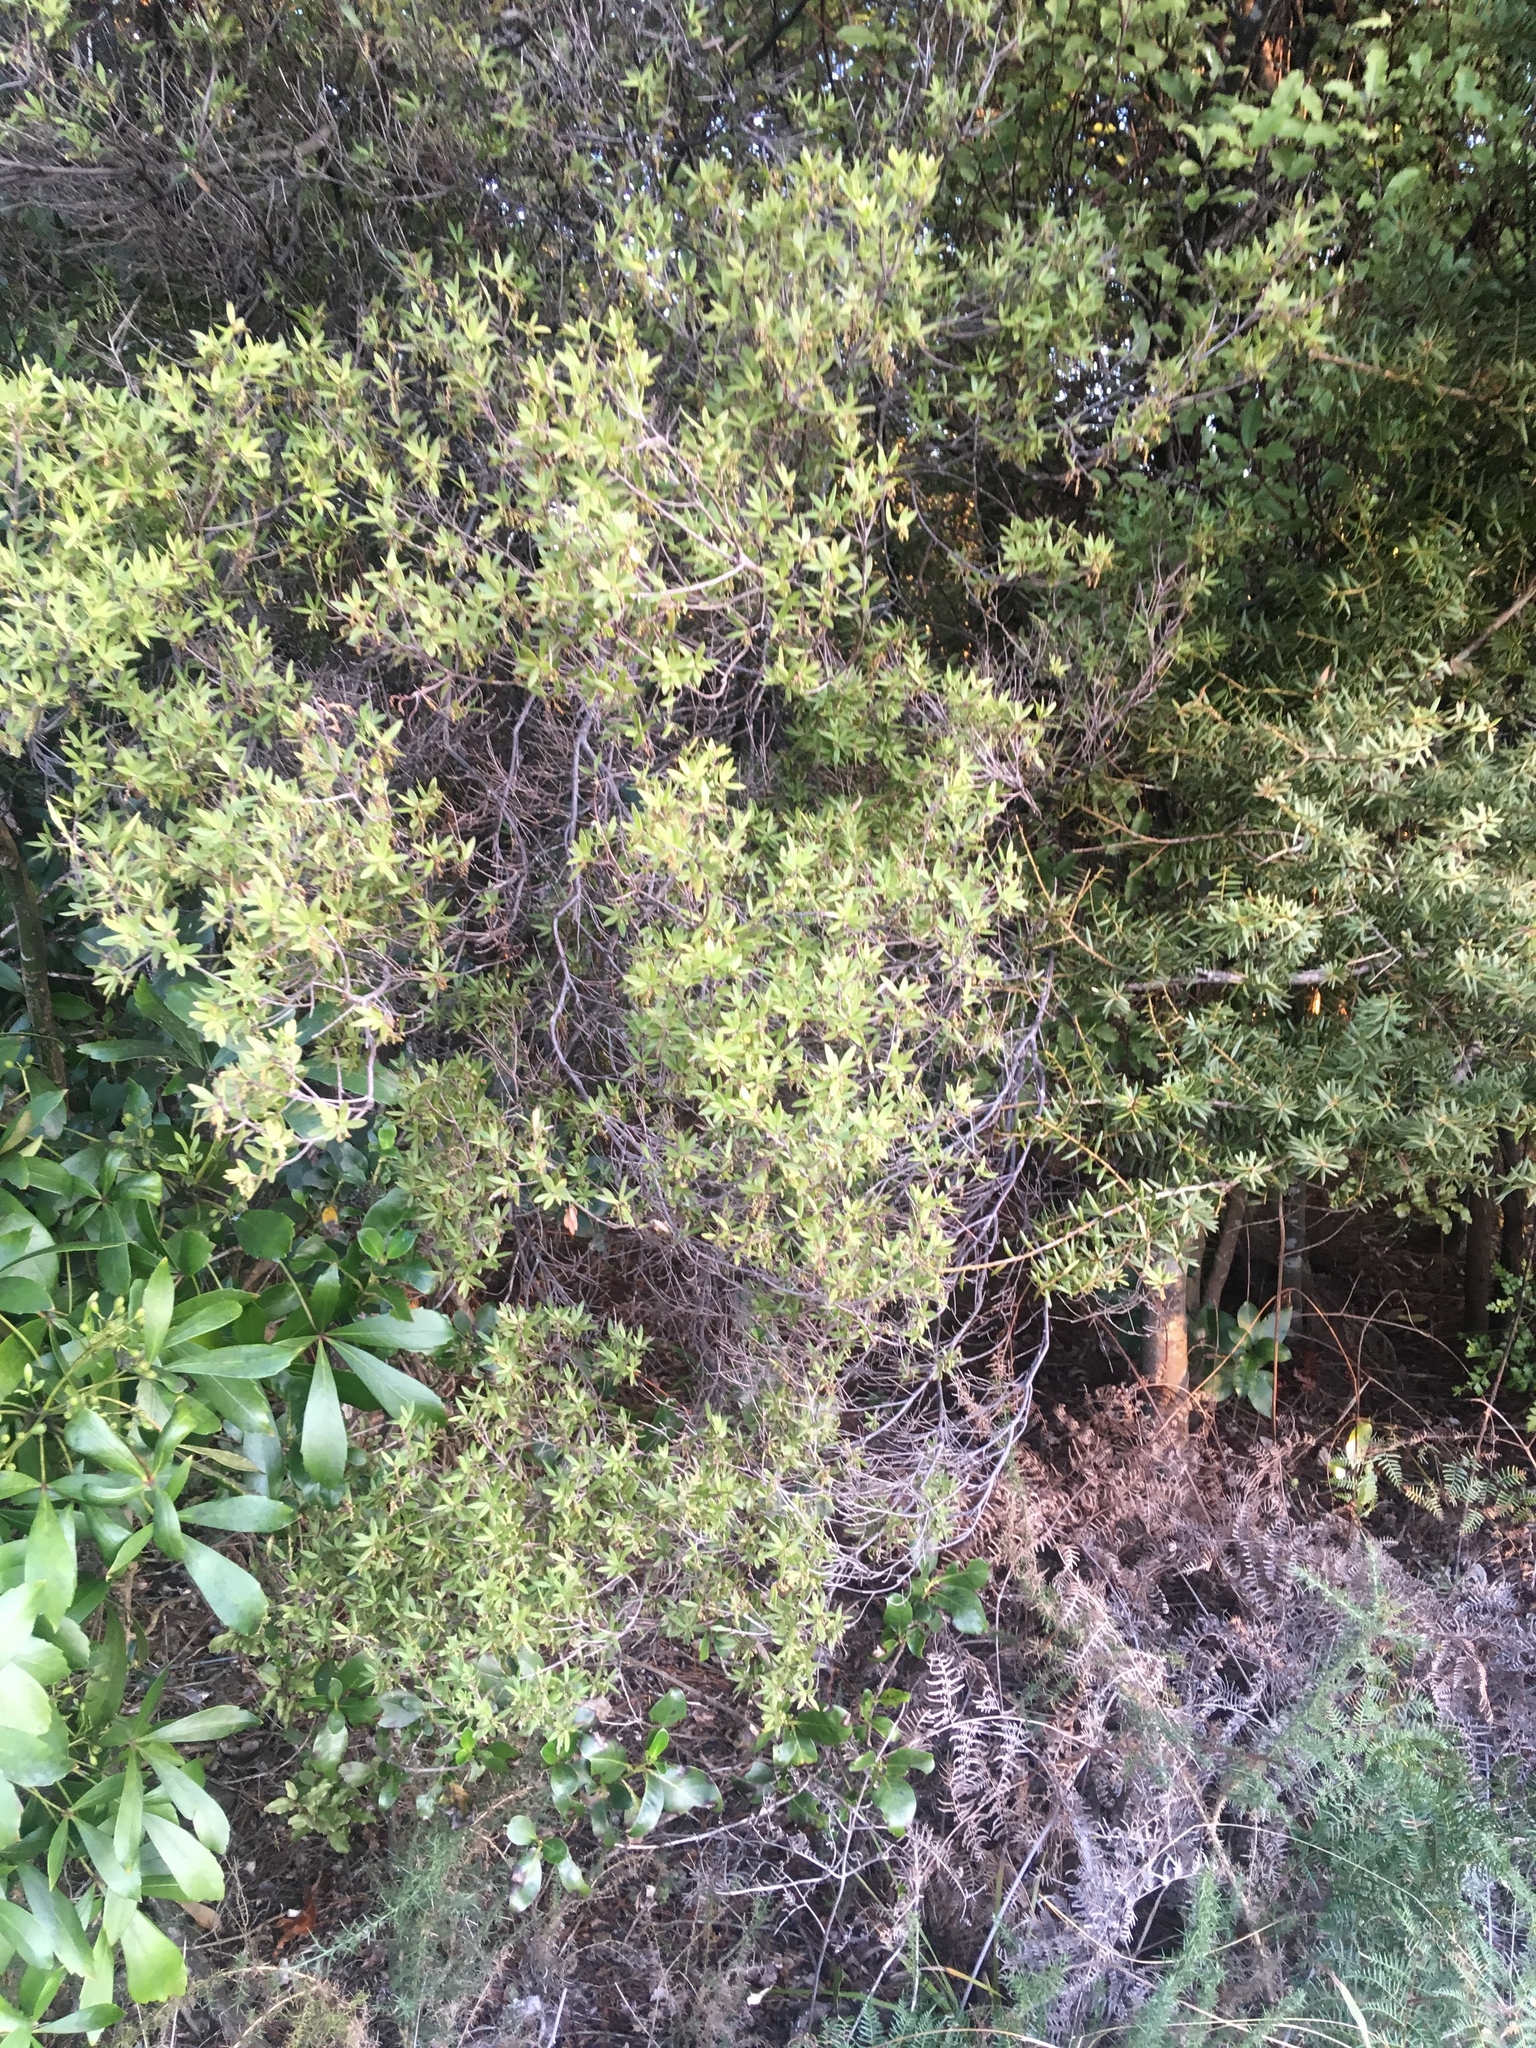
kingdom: Plantae
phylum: Tracheophyta
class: Magnoliopsida
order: Ericales
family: Ericaceae
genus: Leucopogon
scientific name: Leucopogon fasciculatus
